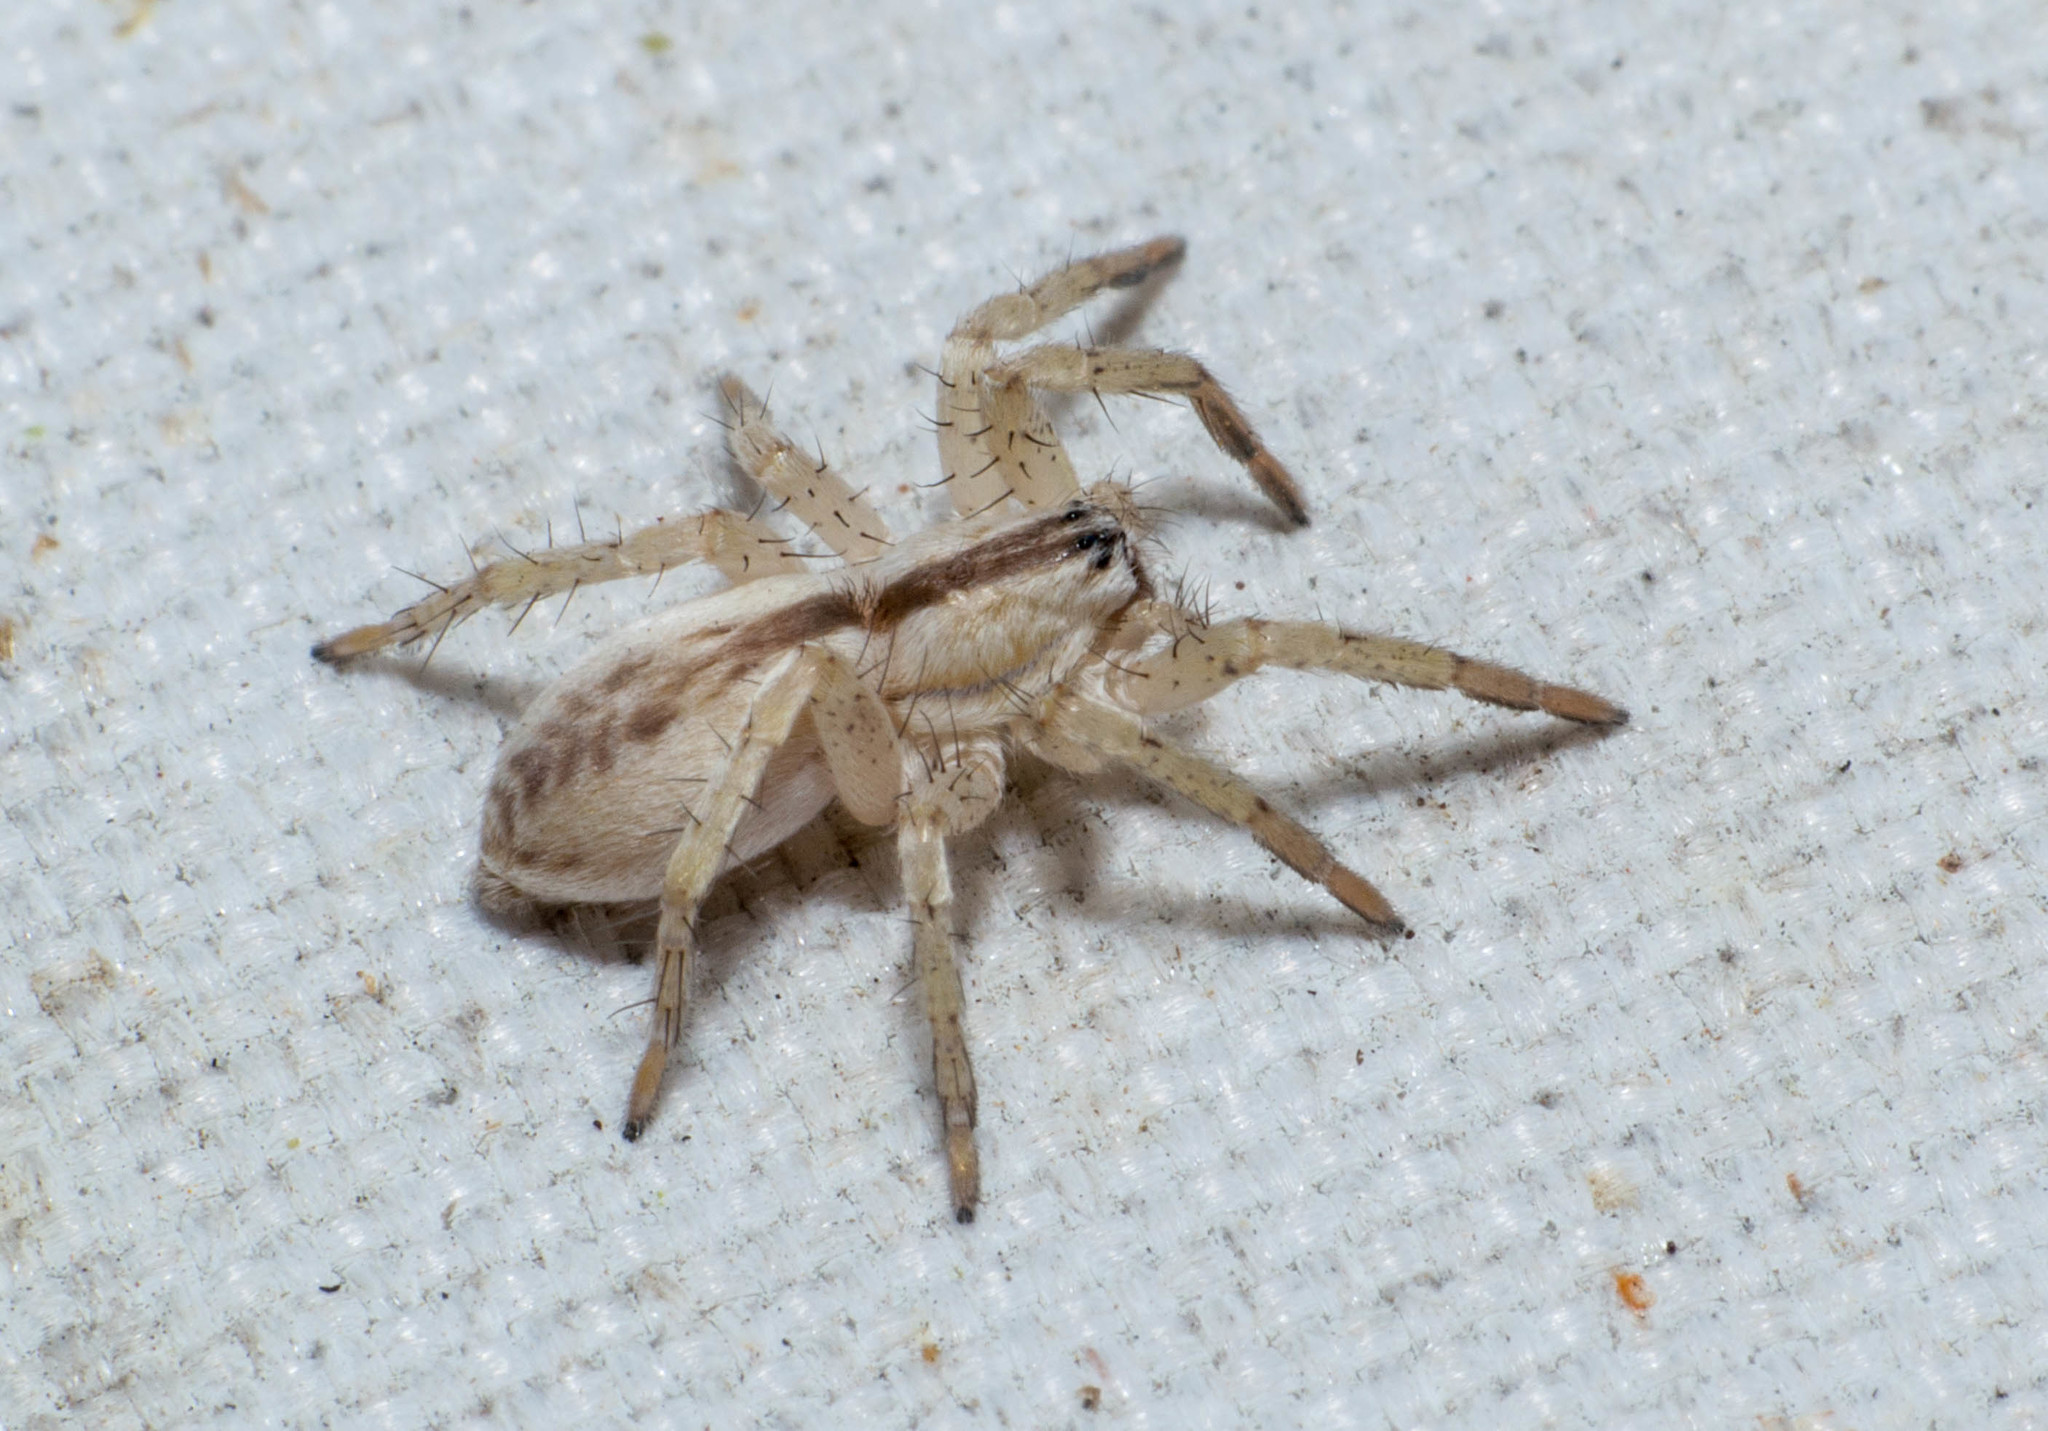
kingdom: Animalia
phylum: Arthropoda
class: Arachnida
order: Araneae
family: Anyphaenidae
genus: Arachosia
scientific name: Arachosia praesignis
